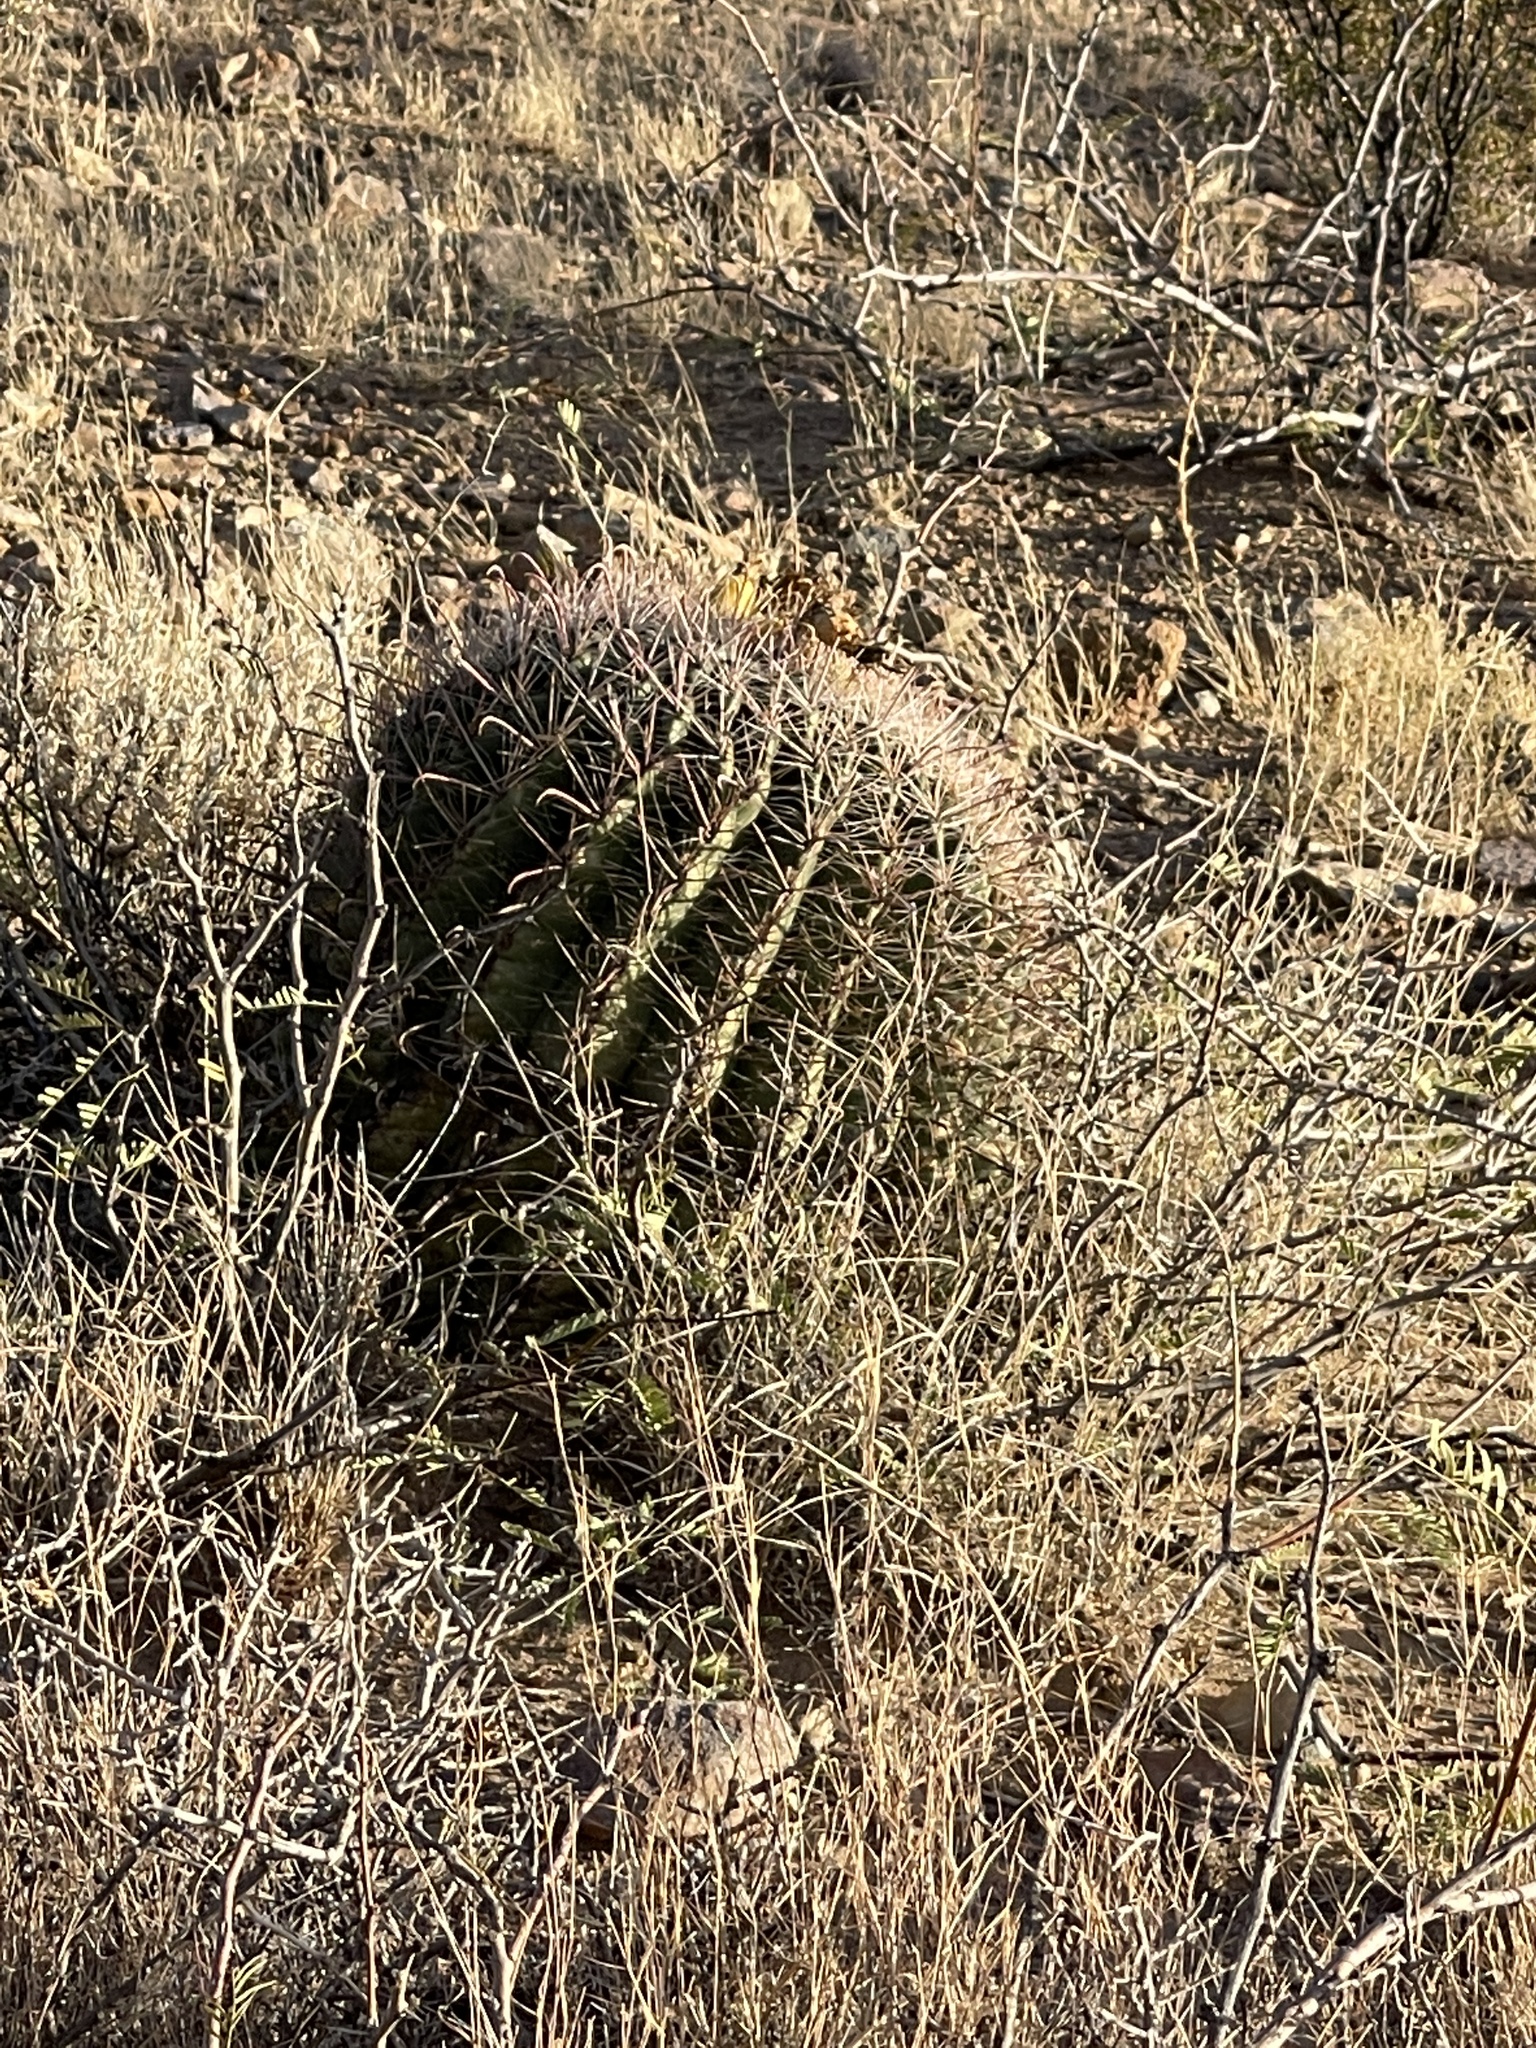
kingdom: Plantae
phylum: Tracheophyta
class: Magnoliopsida
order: Caryophyllales
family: Cactaceae
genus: Ferocactus
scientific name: Ferocactus wislizeni
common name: Candy barrel cactus
